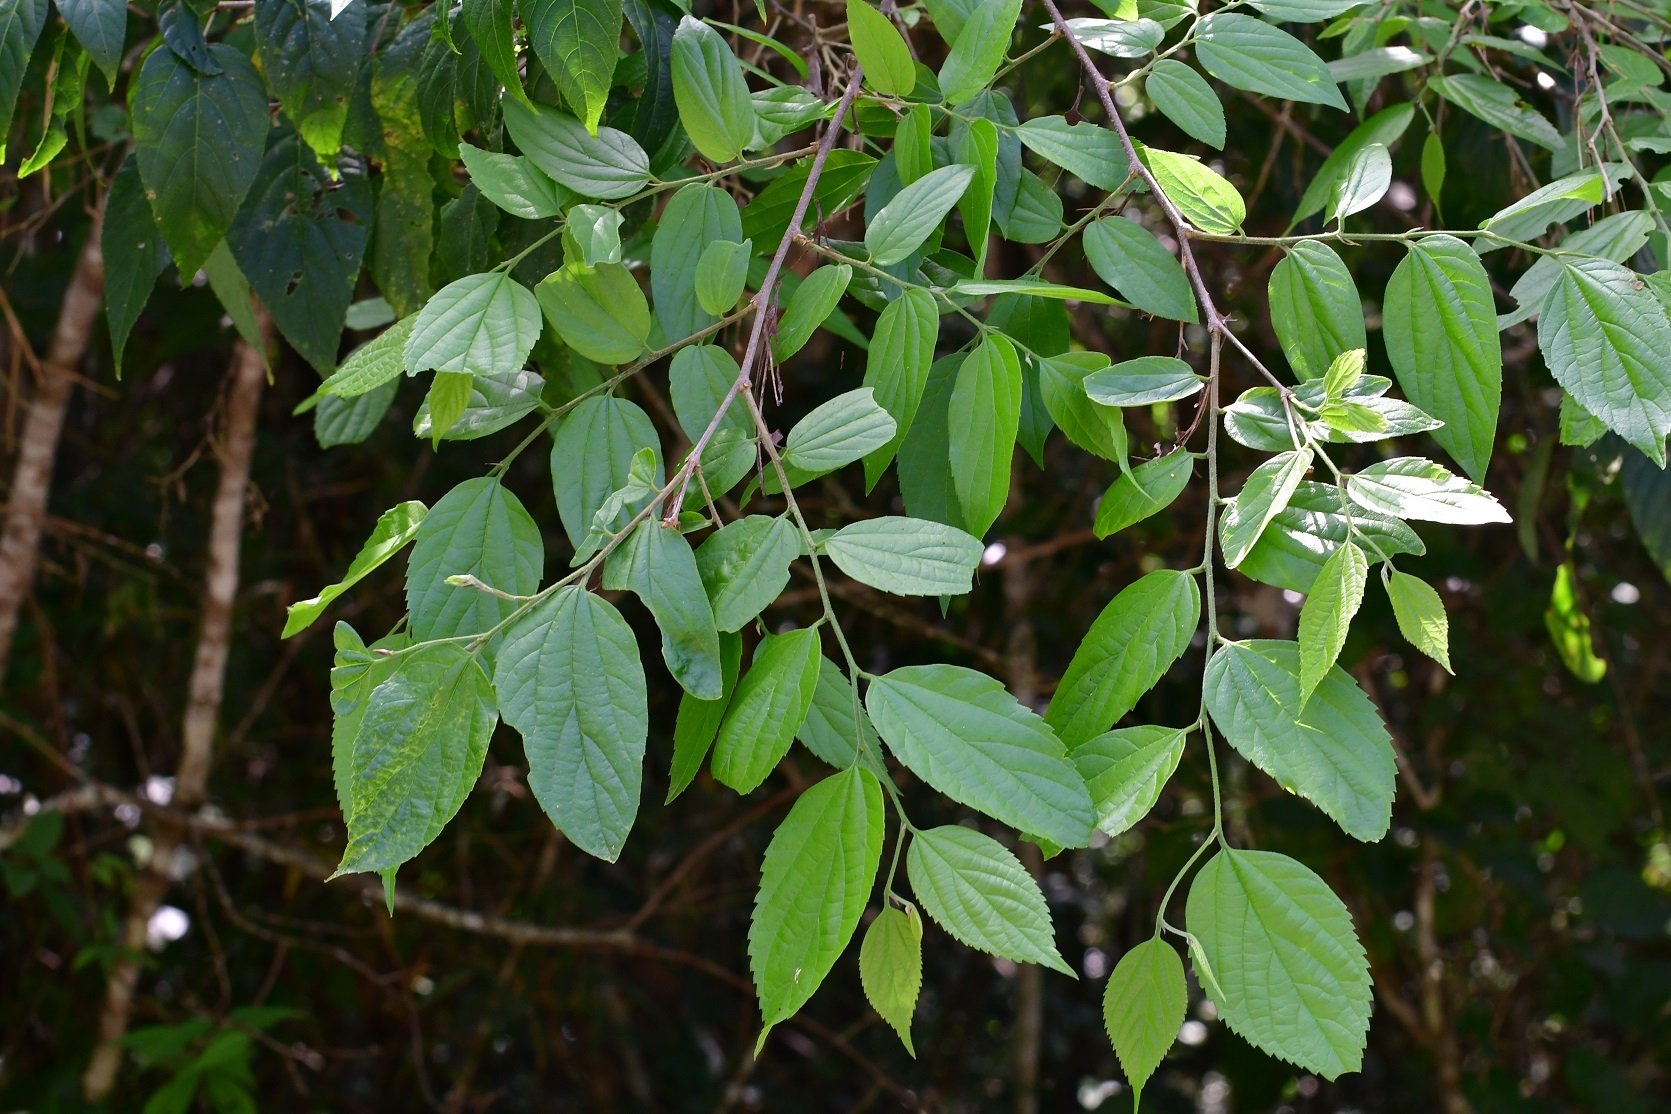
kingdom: Plantae
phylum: Tracheophyta
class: Magnoliopsida
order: Rosales
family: Rhamnaceae
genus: Colubrina
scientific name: Colubrina triflora
